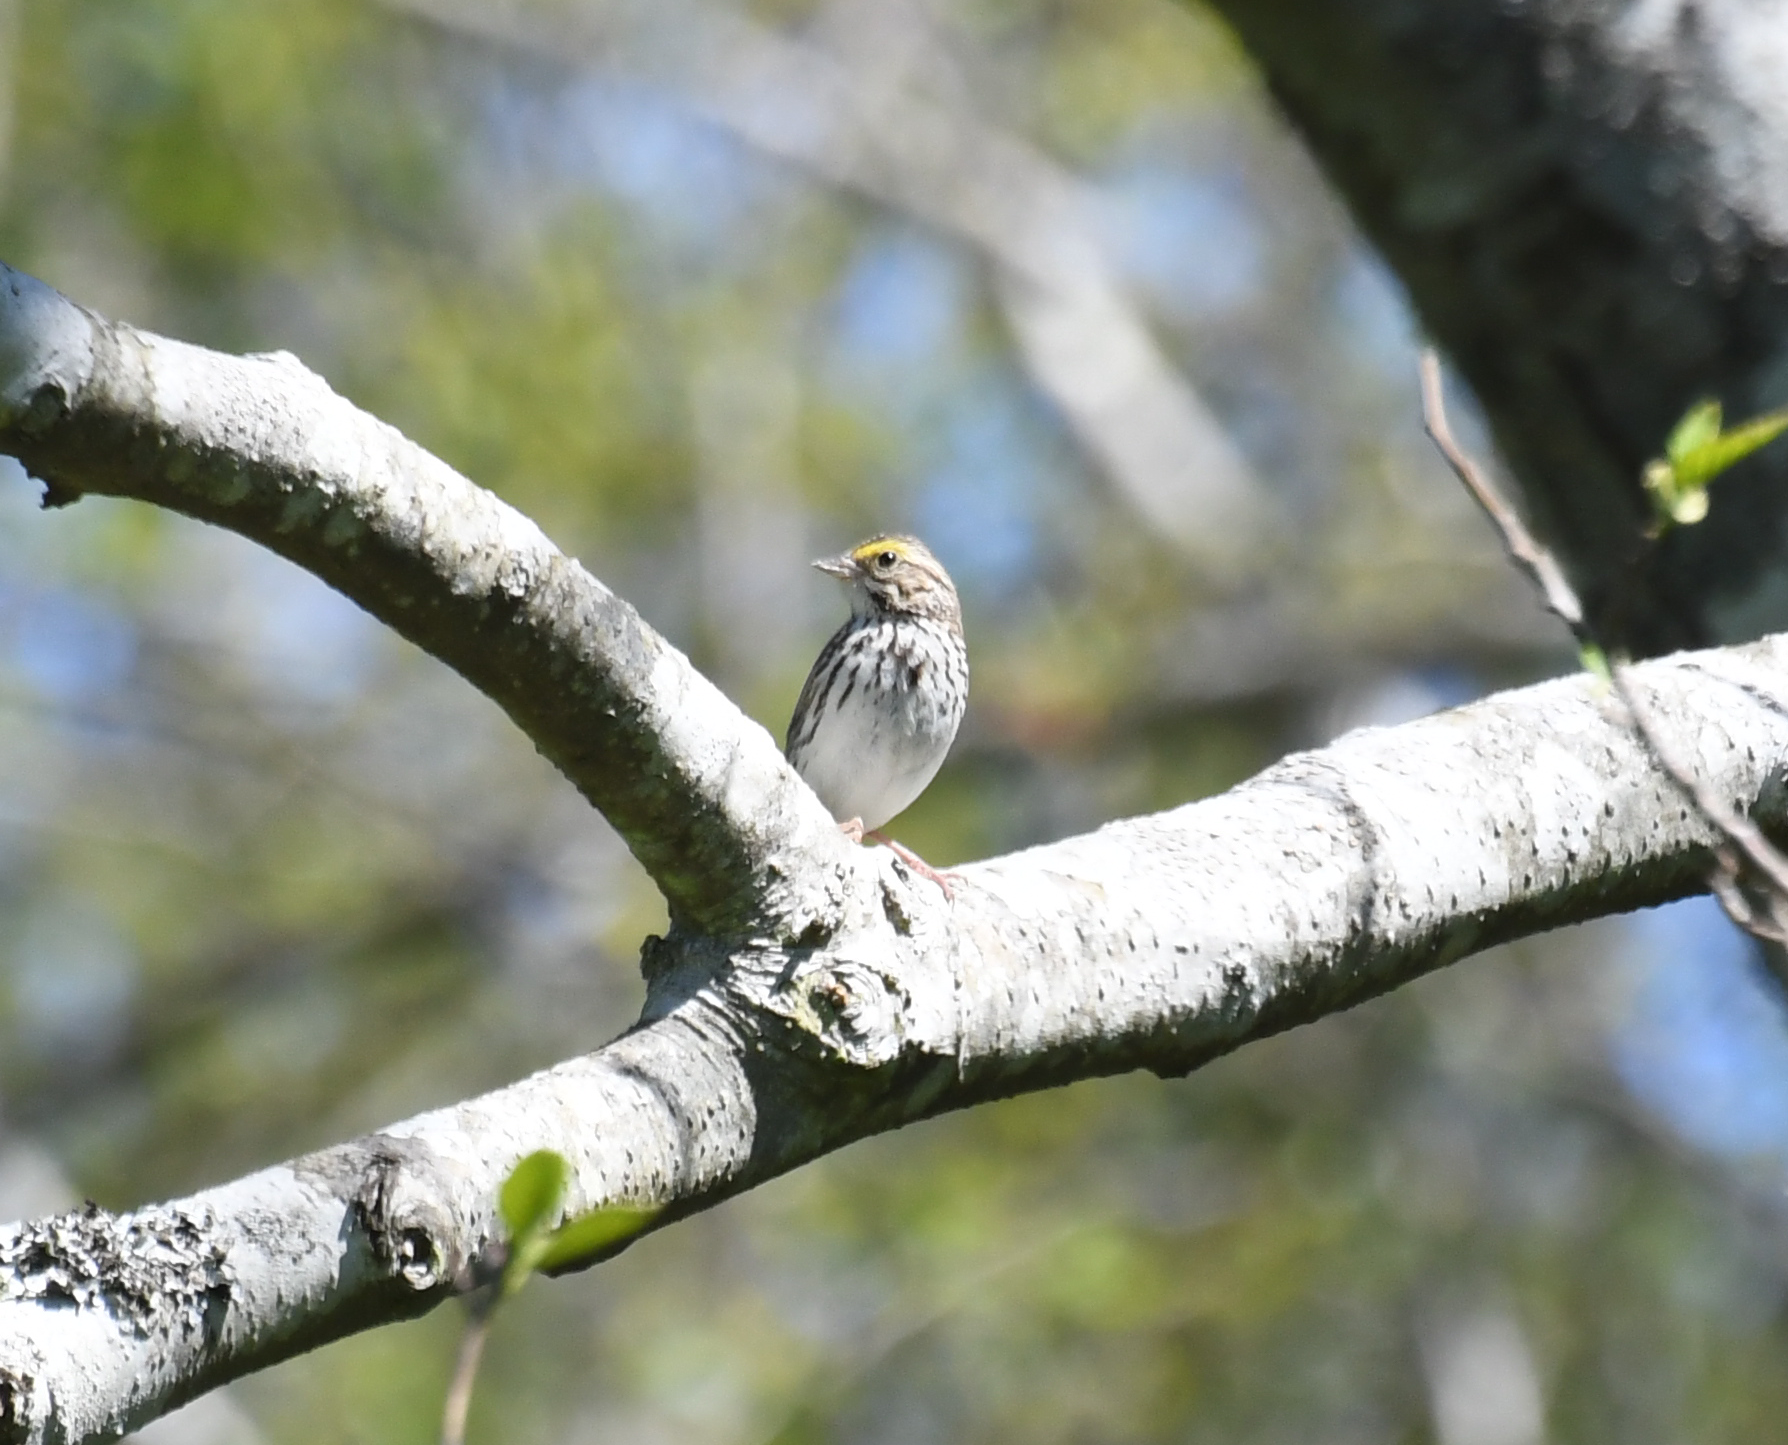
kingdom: Animalia
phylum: Chordata
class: Aves
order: Passeriformes
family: Passerellidae
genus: Passerculus
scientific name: Passerculus sandwichensis
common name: Savannah sparrow
